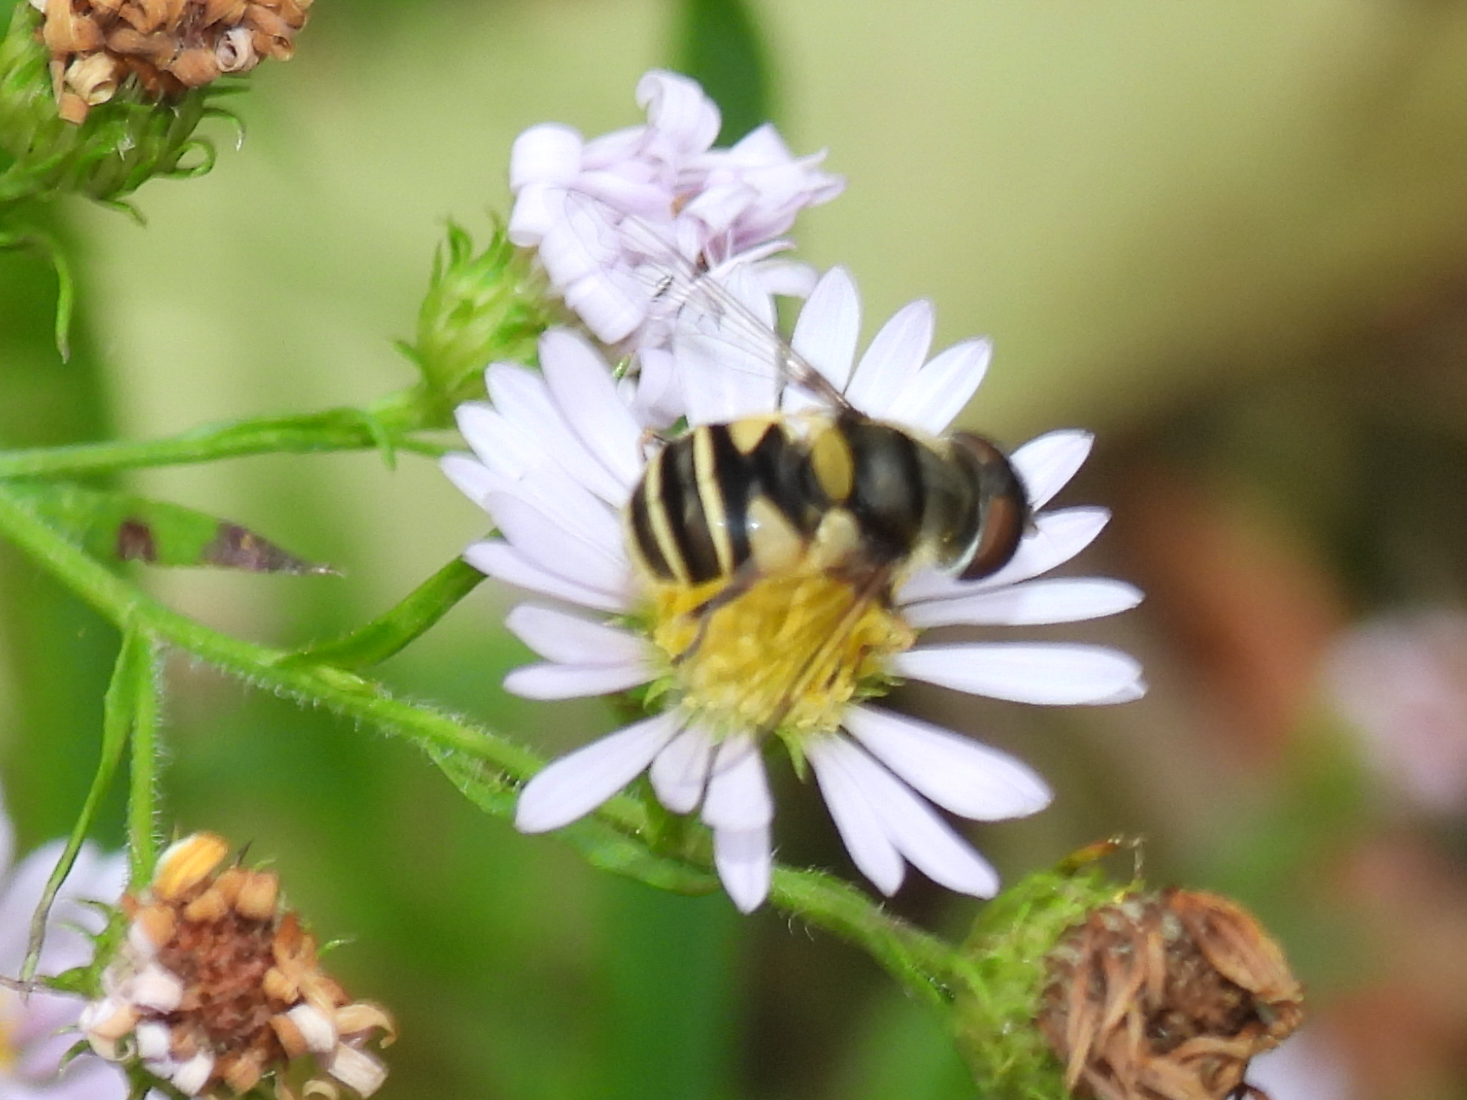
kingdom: Animalia
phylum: Arthropoda
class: Insecta
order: Diptera
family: Syrphidae
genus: Eristalis
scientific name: Eristalis transversa
